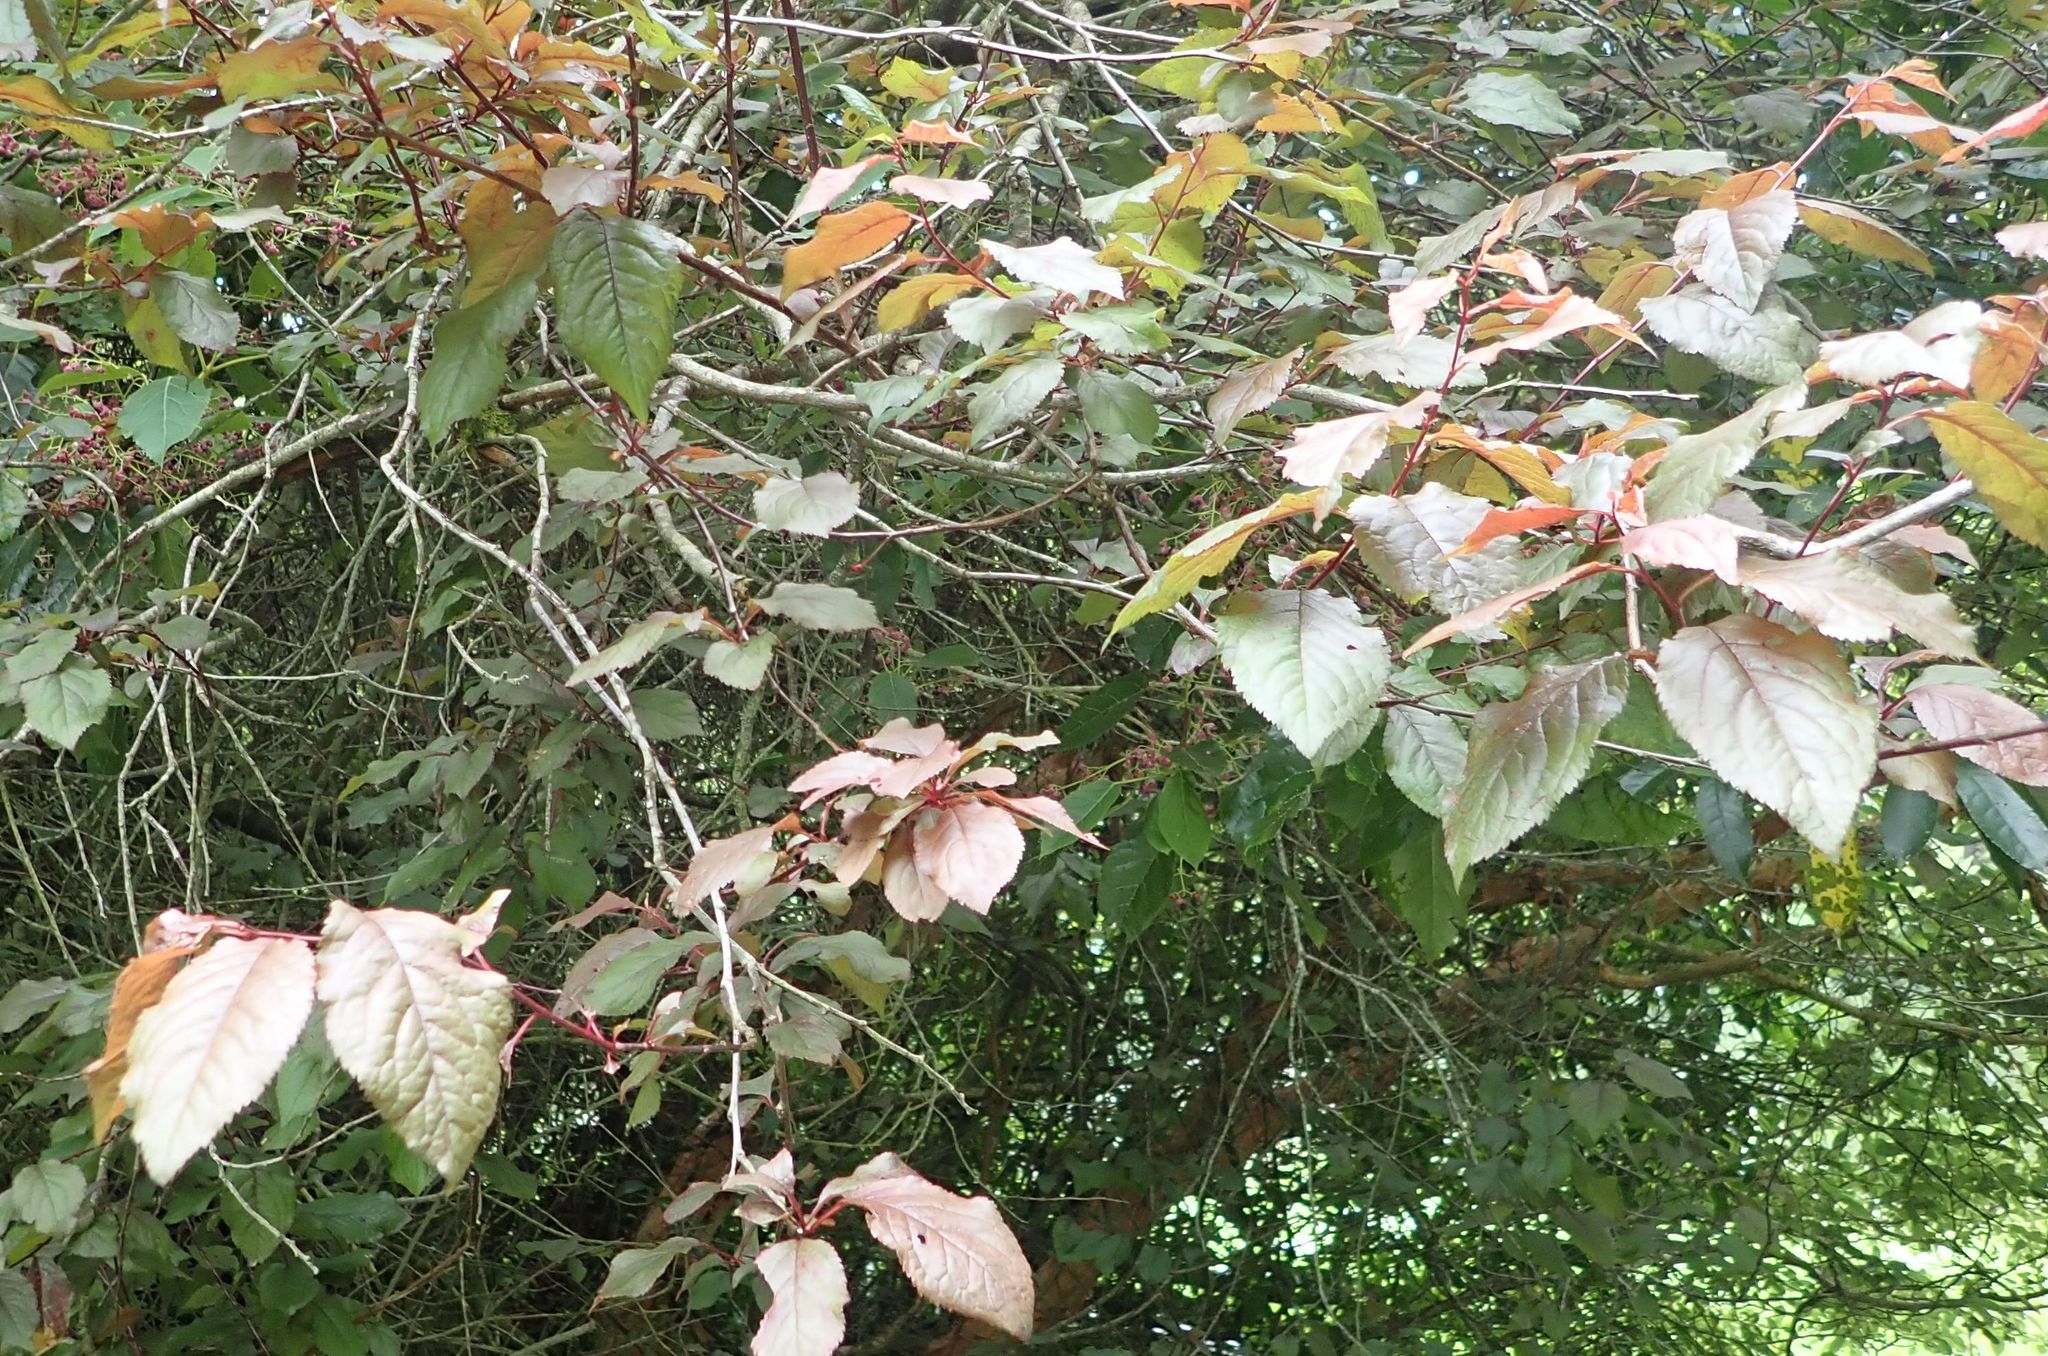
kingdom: Plantae
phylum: Tracheophyta
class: Magnoliopsida
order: Rosales
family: Rosaceae
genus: Prunus
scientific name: Prunus cerasifera
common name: Cherry plum
